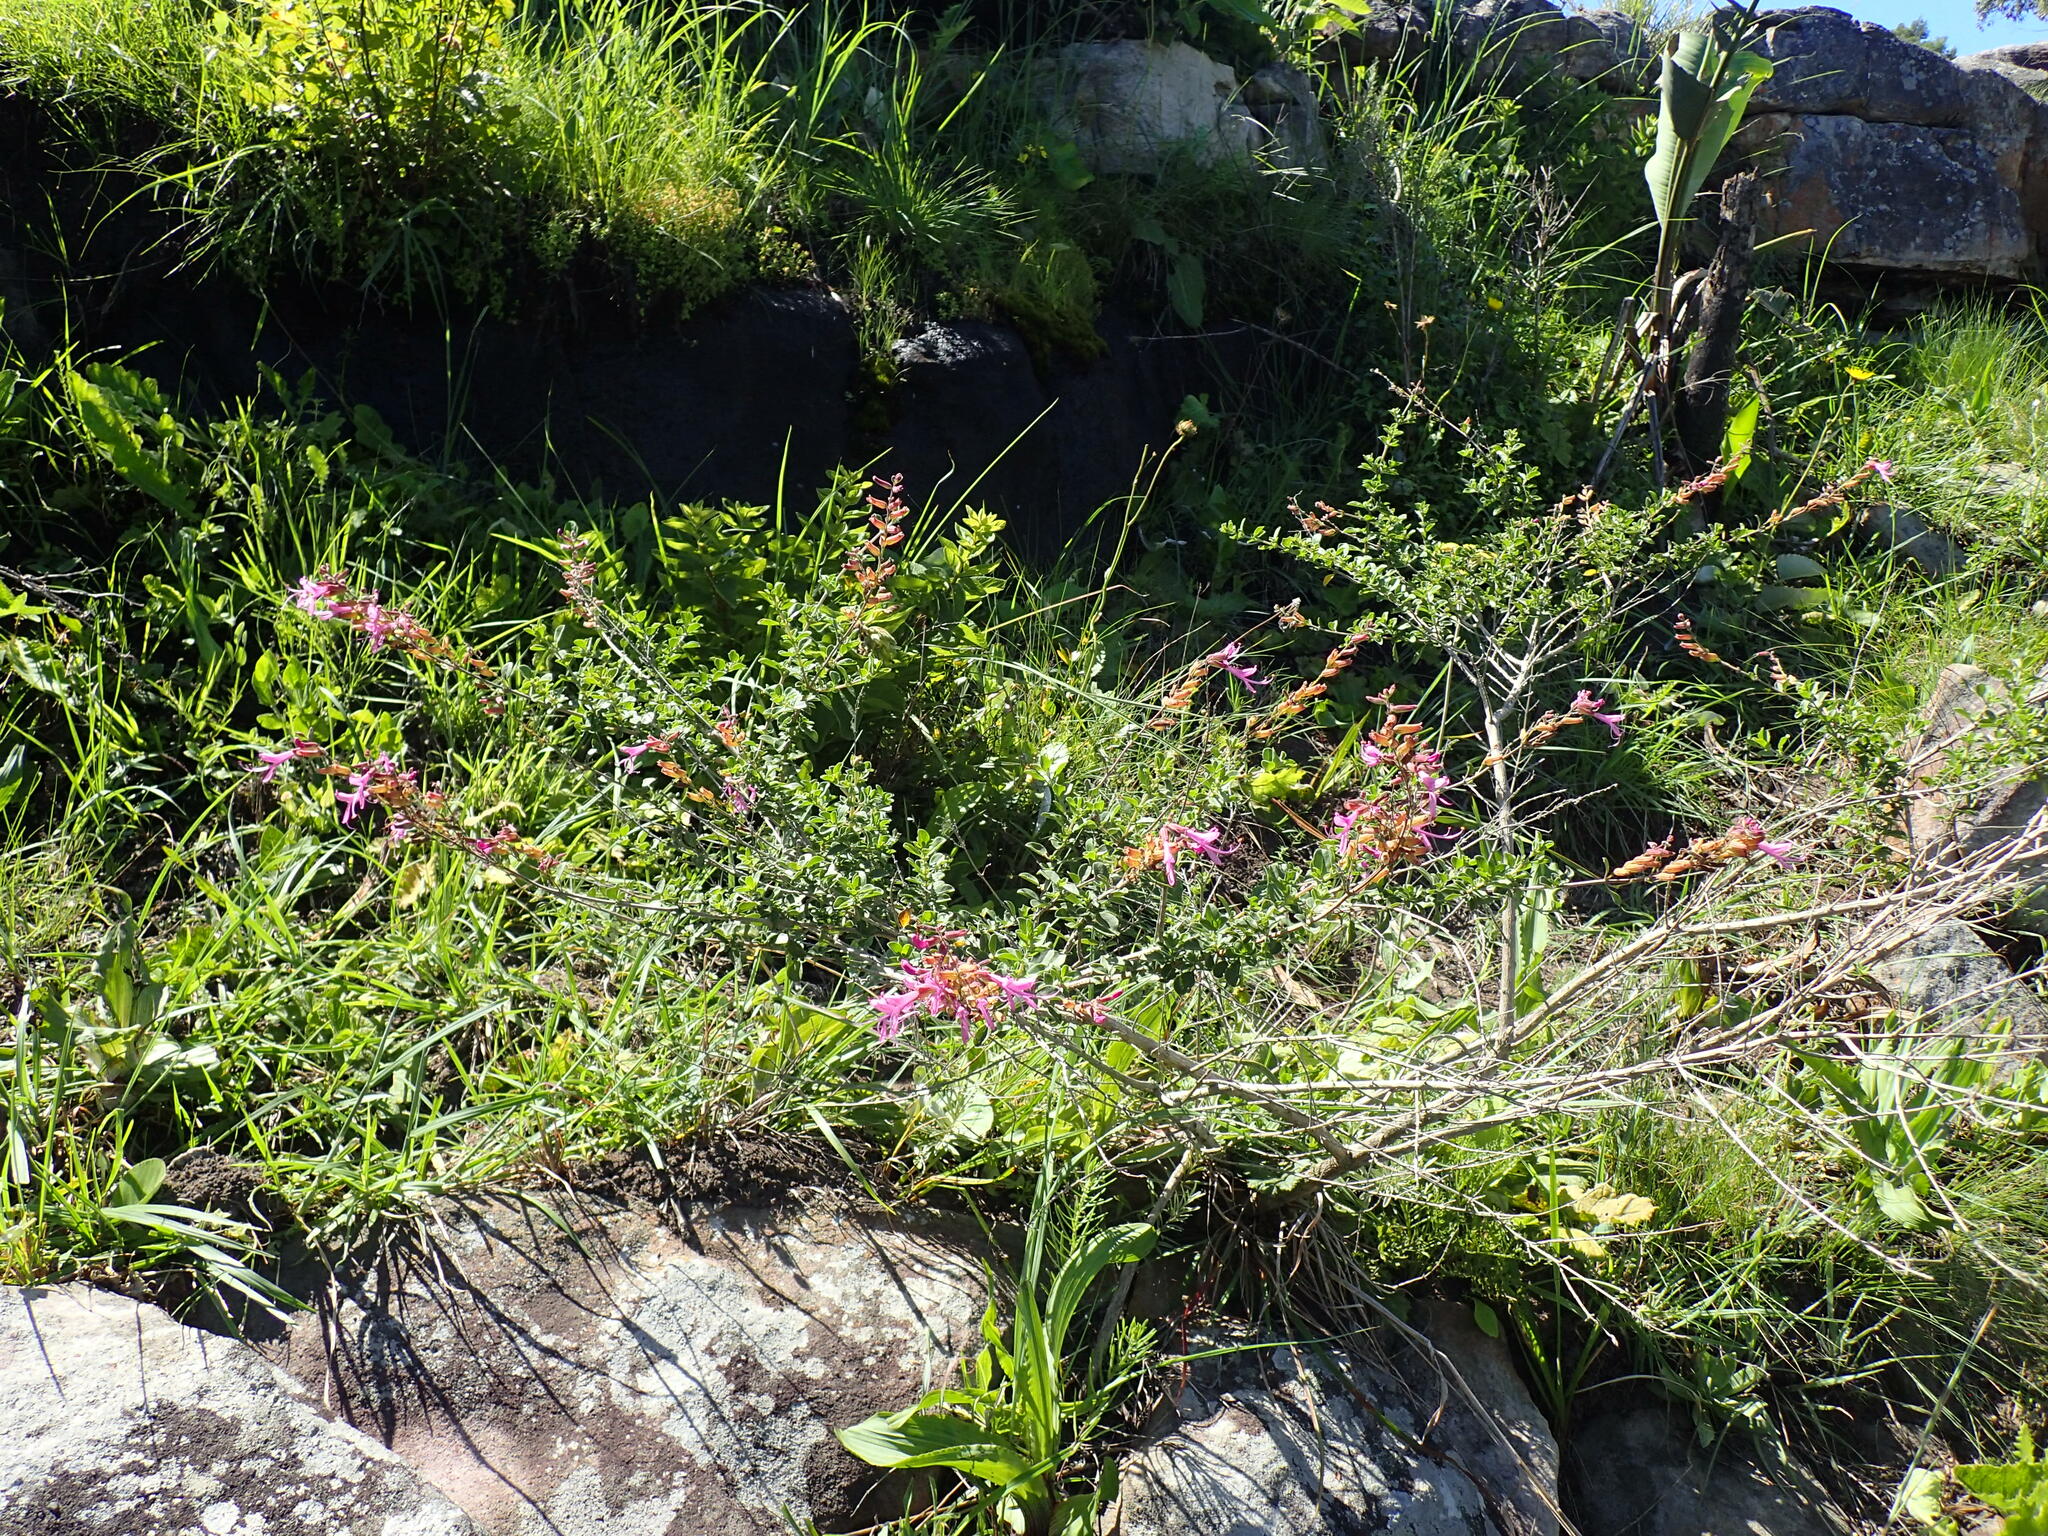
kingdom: Plantae
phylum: Tracheophyta
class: Magnoliopsida
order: Lamiales
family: Lamiaceae
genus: Syncolostemon
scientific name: Syncolostemon rotundifolius
